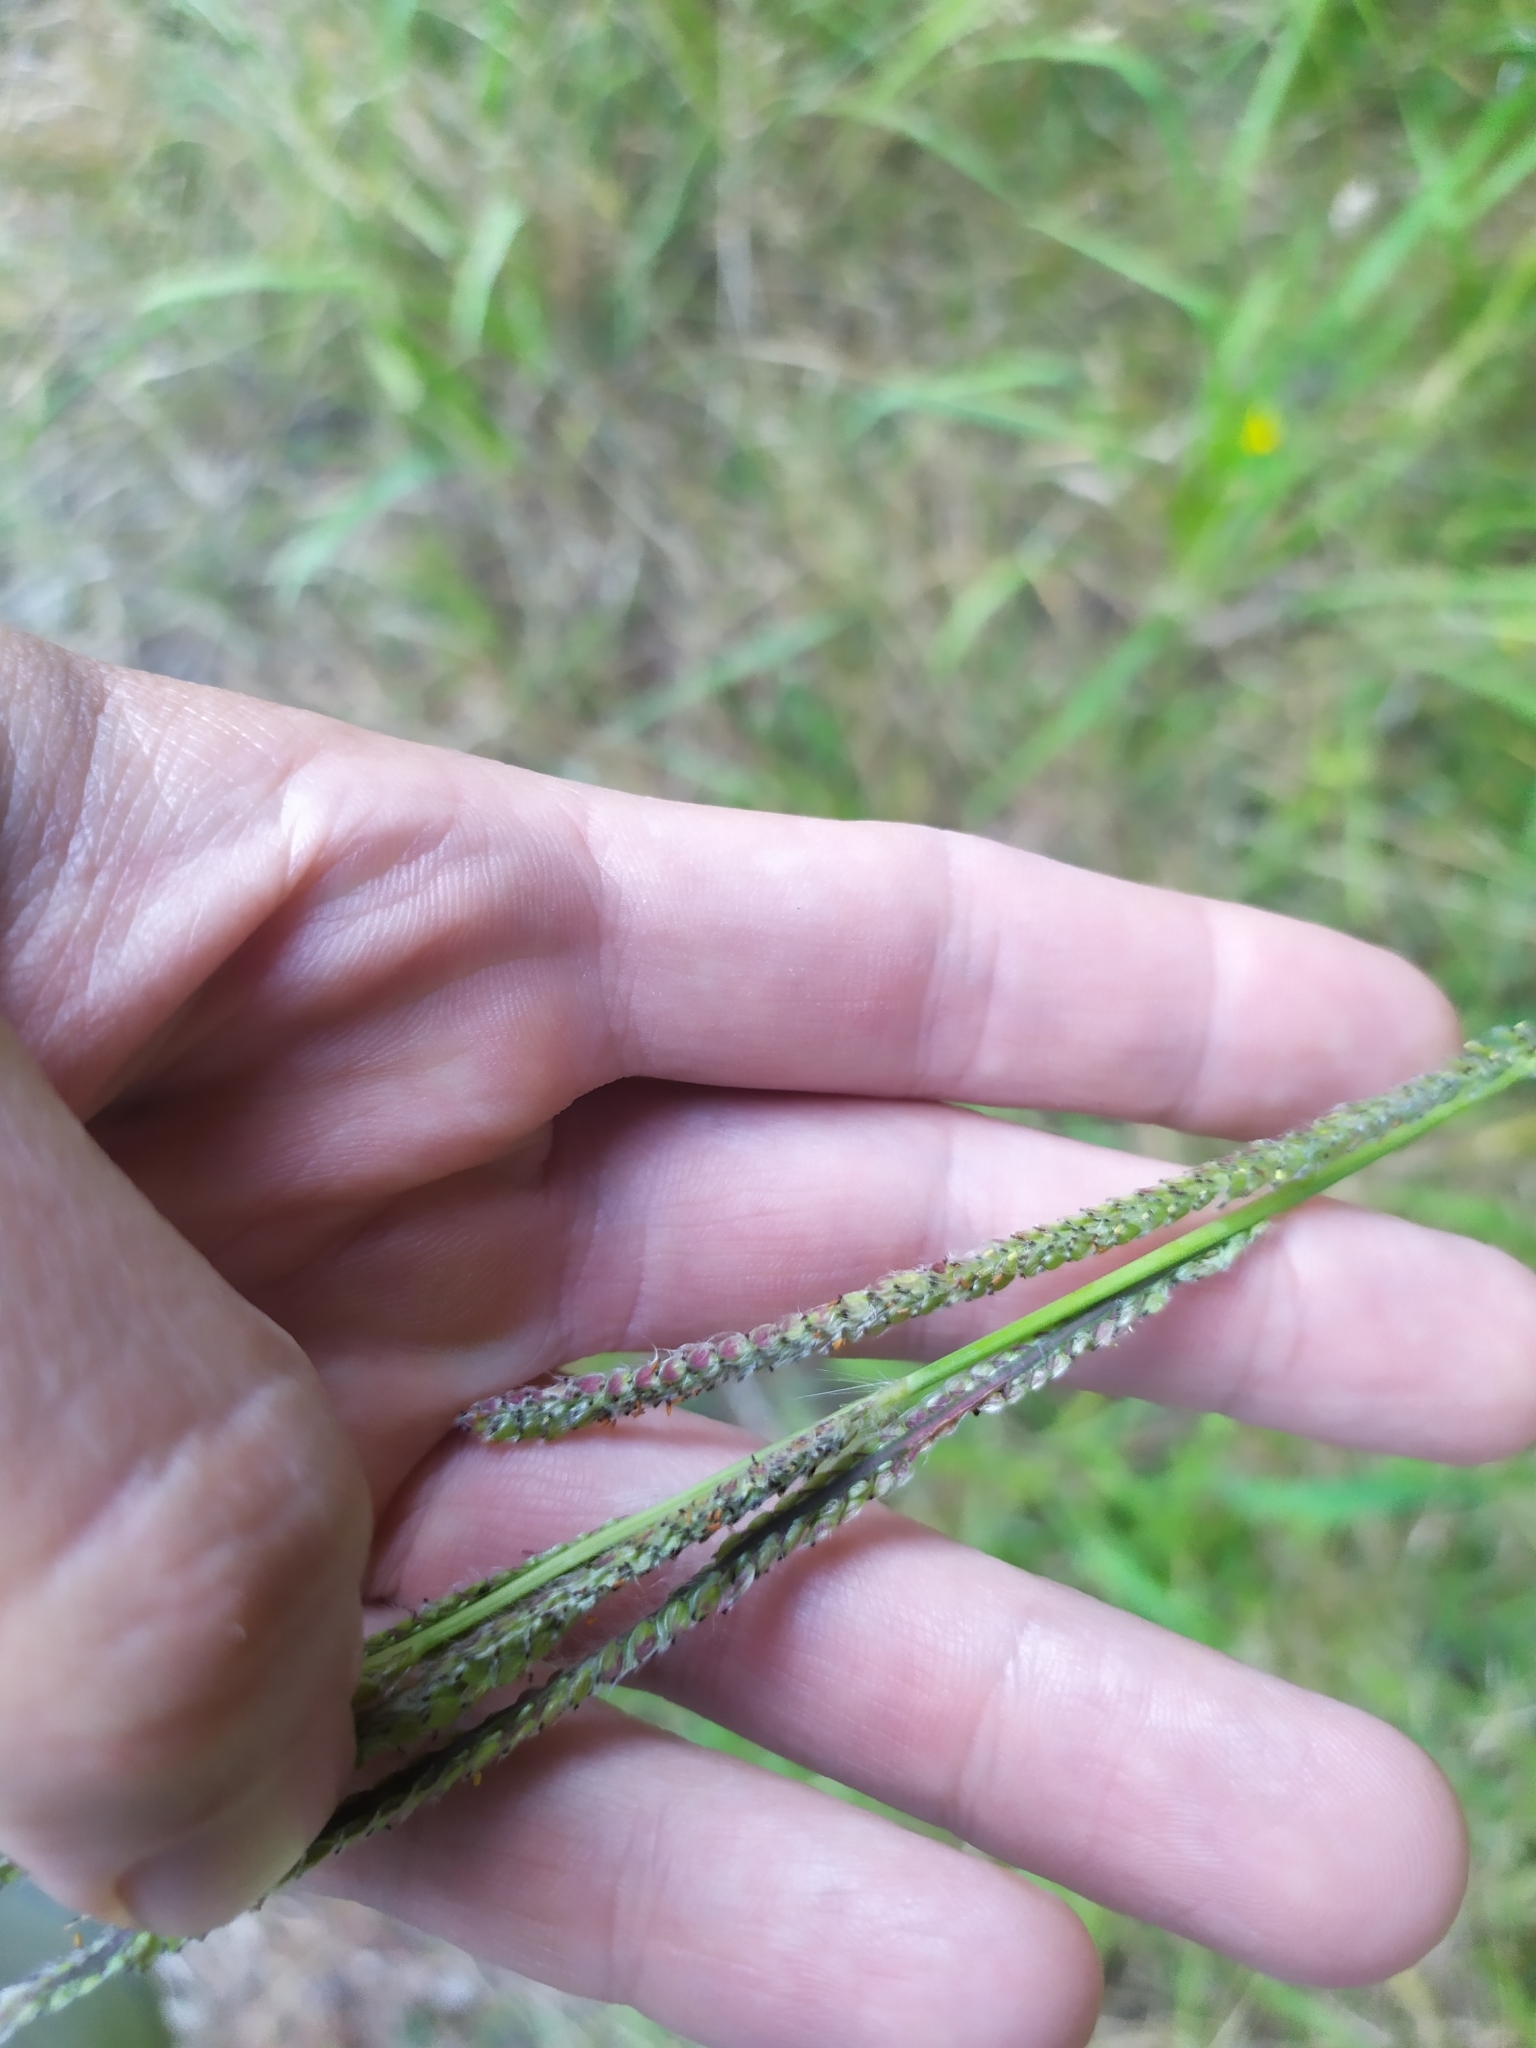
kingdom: Plantae
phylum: Tracheophyta
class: Liliopsida
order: Poales
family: Poaceae
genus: Paspalum
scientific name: Paspalum urvillei
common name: Vasey's grass
